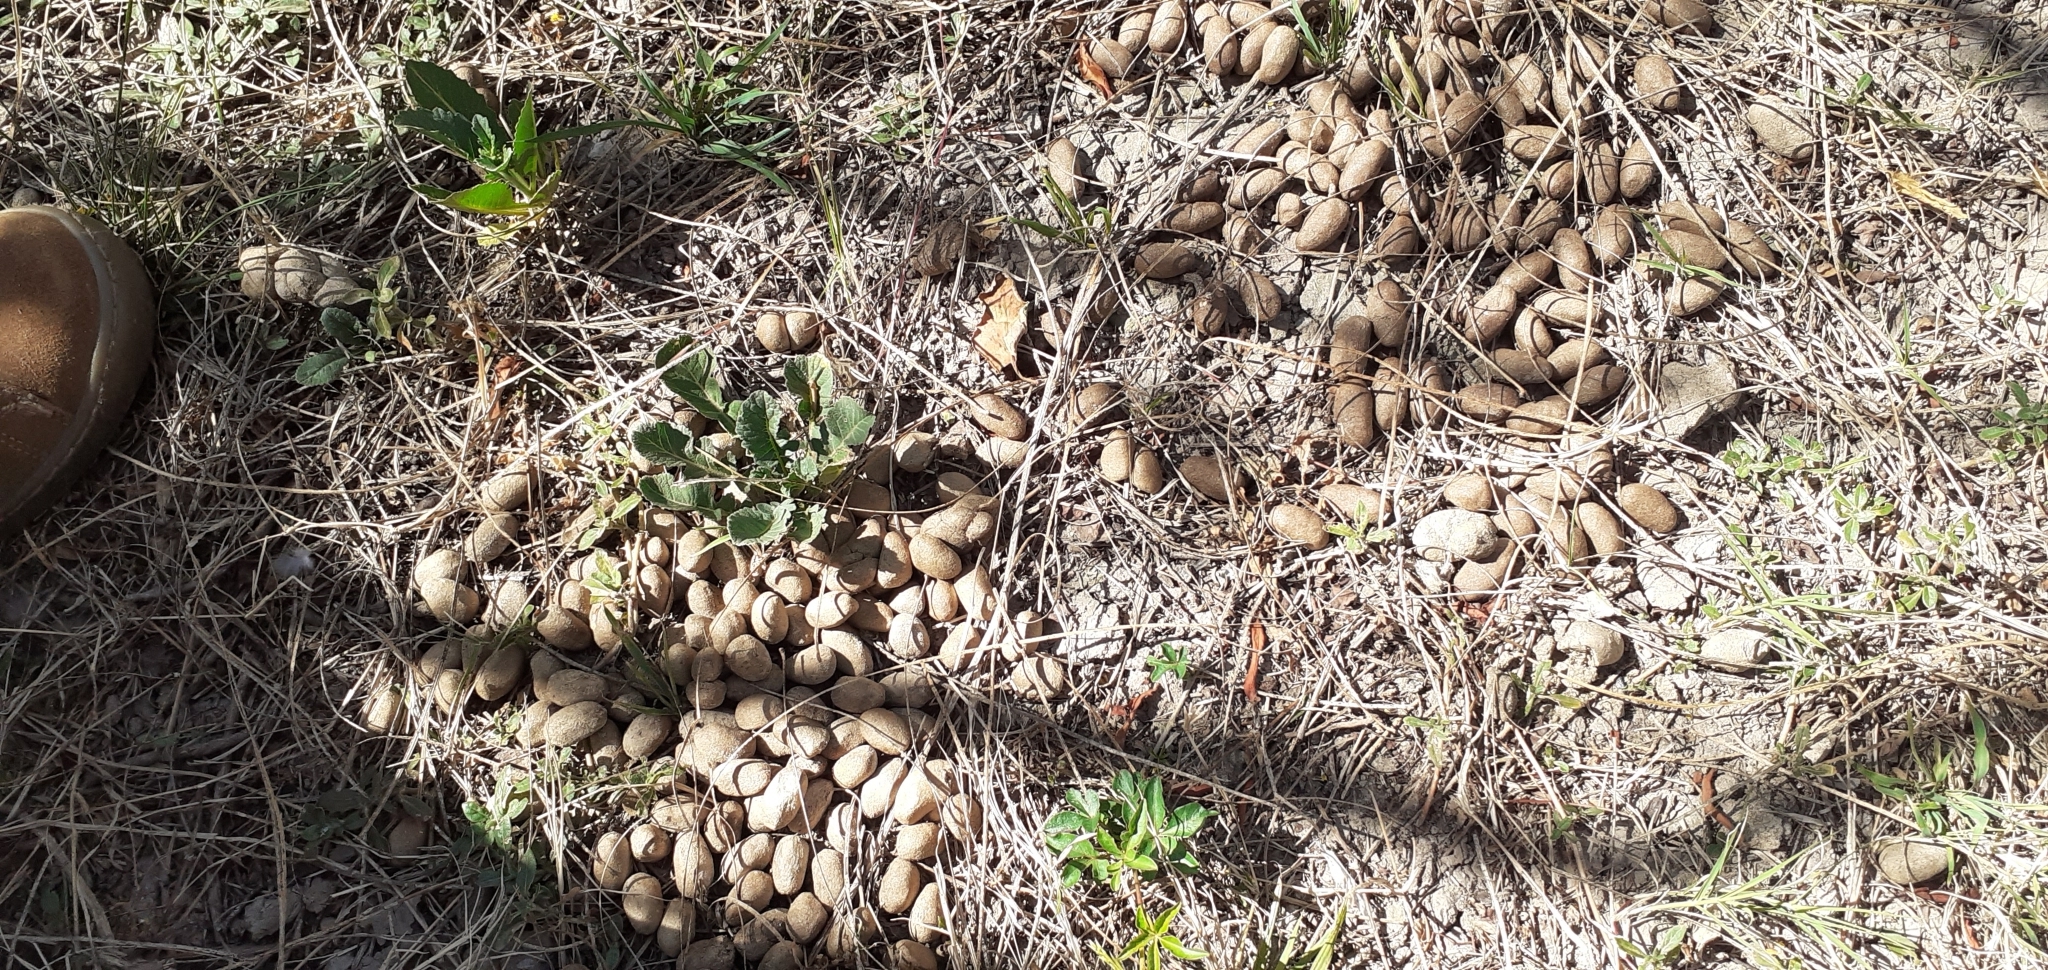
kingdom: Animalia
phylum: Chordata
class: Mammalia
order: Rodentia
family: Caviidae
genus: Hydrochoerus
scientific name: Hydrochoerus hydrochaeris
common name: Capybara
